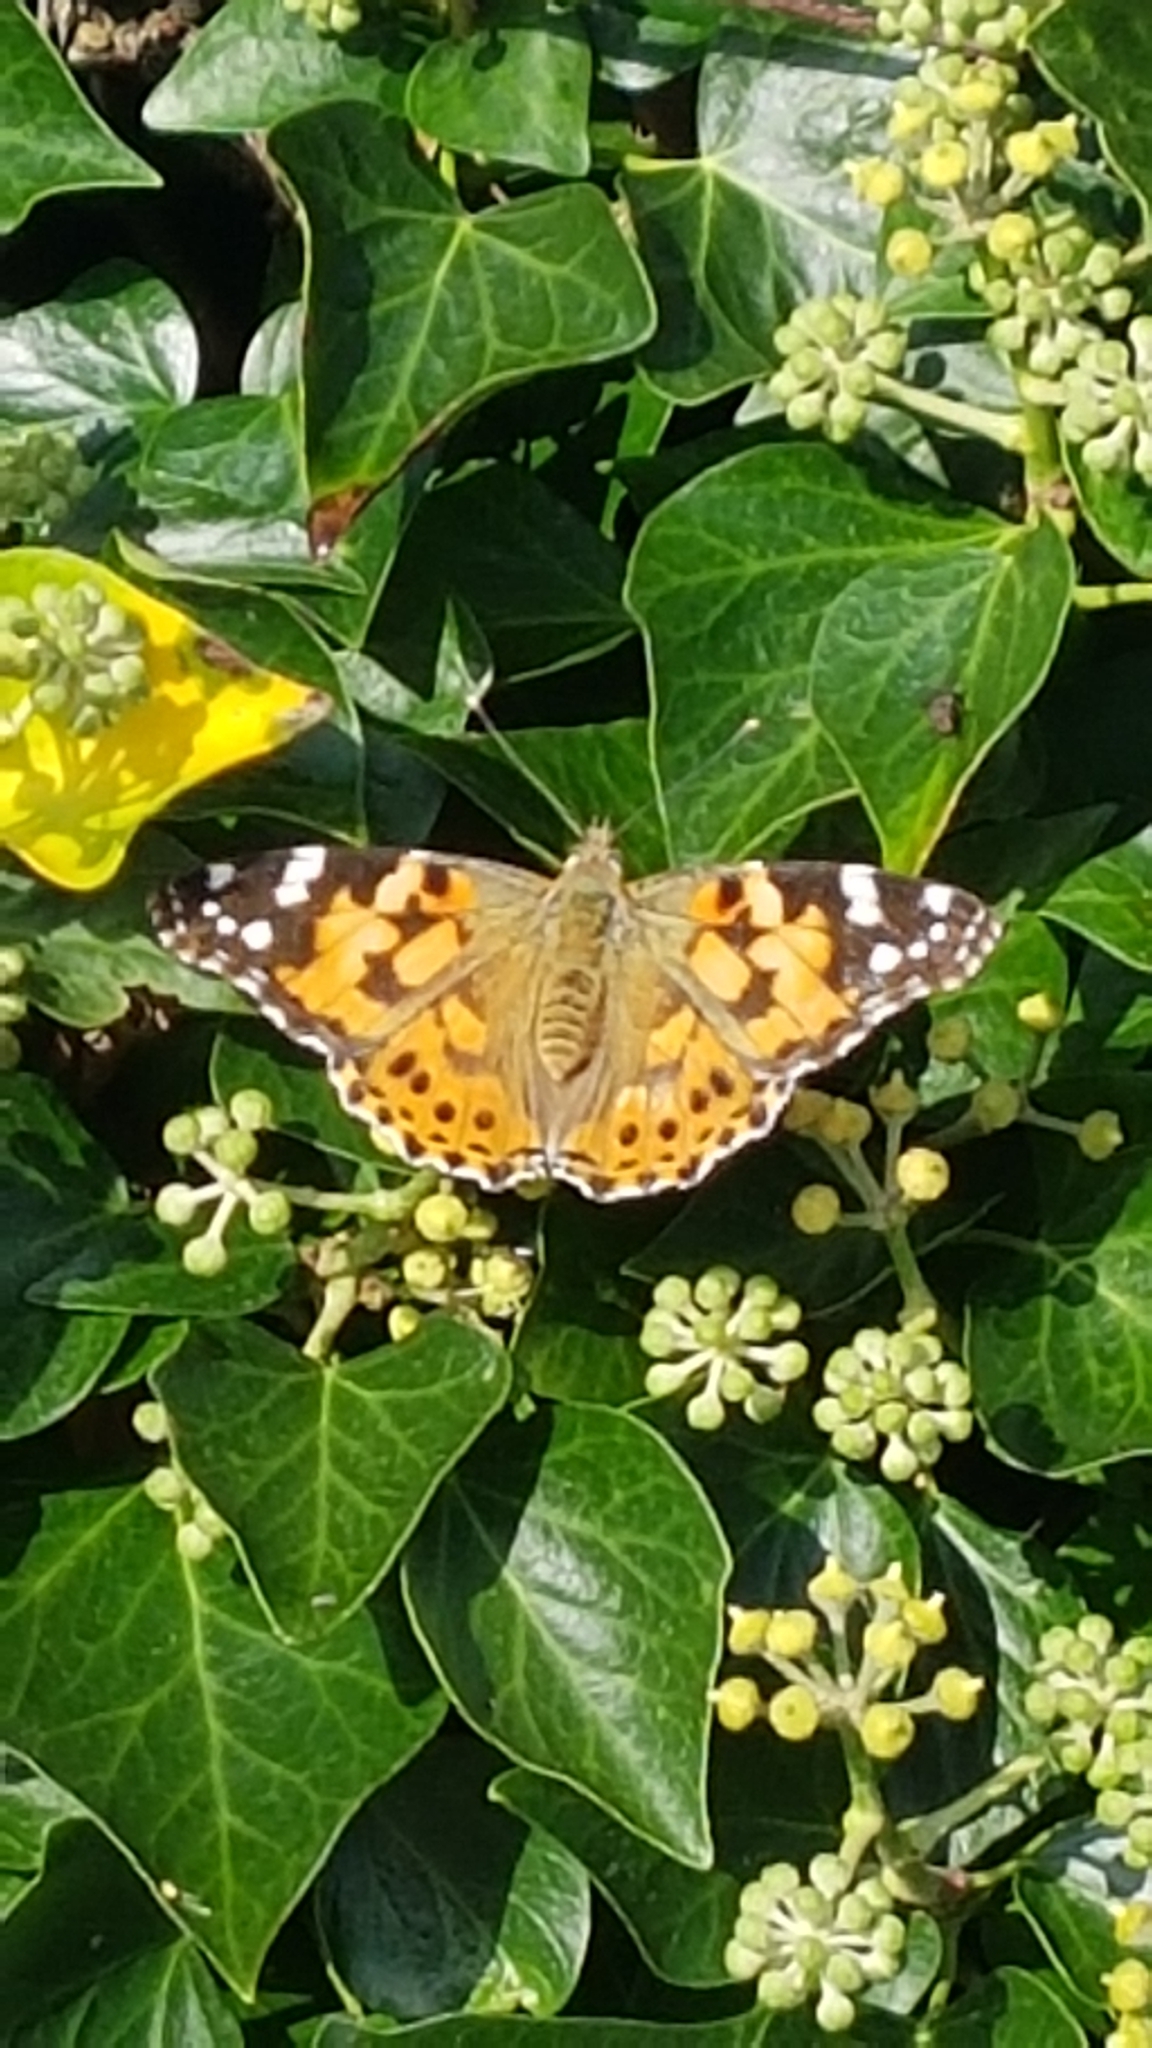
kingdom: Animalia
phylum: Arthropoda
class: Insecta
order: Lepidoptera
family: Nymphalidae
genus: Vanessa
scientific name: Vanessa cardui
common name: Painted lady
